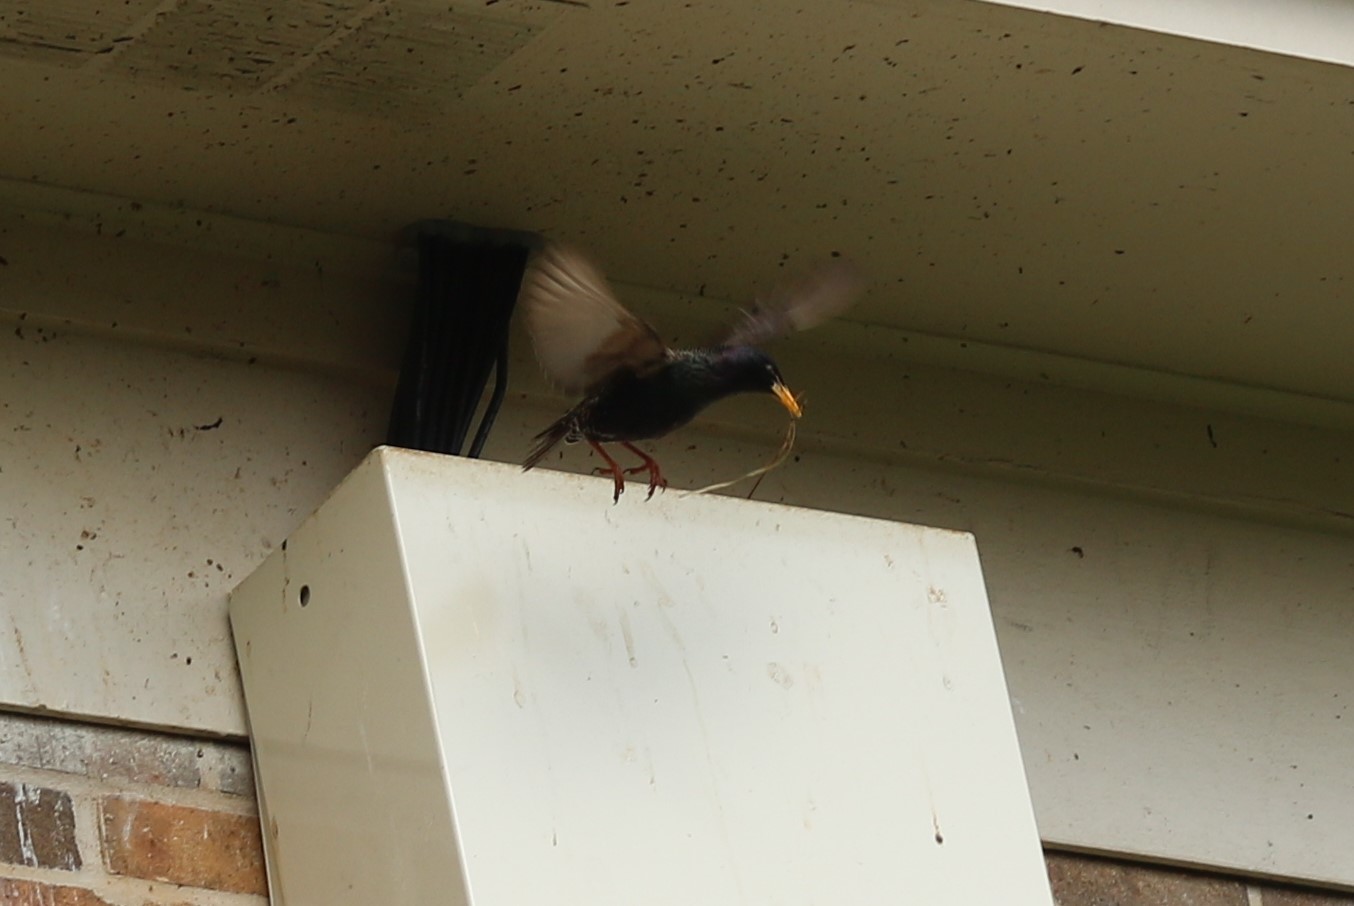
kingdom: Animalia
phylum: Chordata
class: Aves
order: Passeriformes
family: Sturnidae
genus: Sturnus
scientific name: Sturnus vulgaris
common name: Common starling
